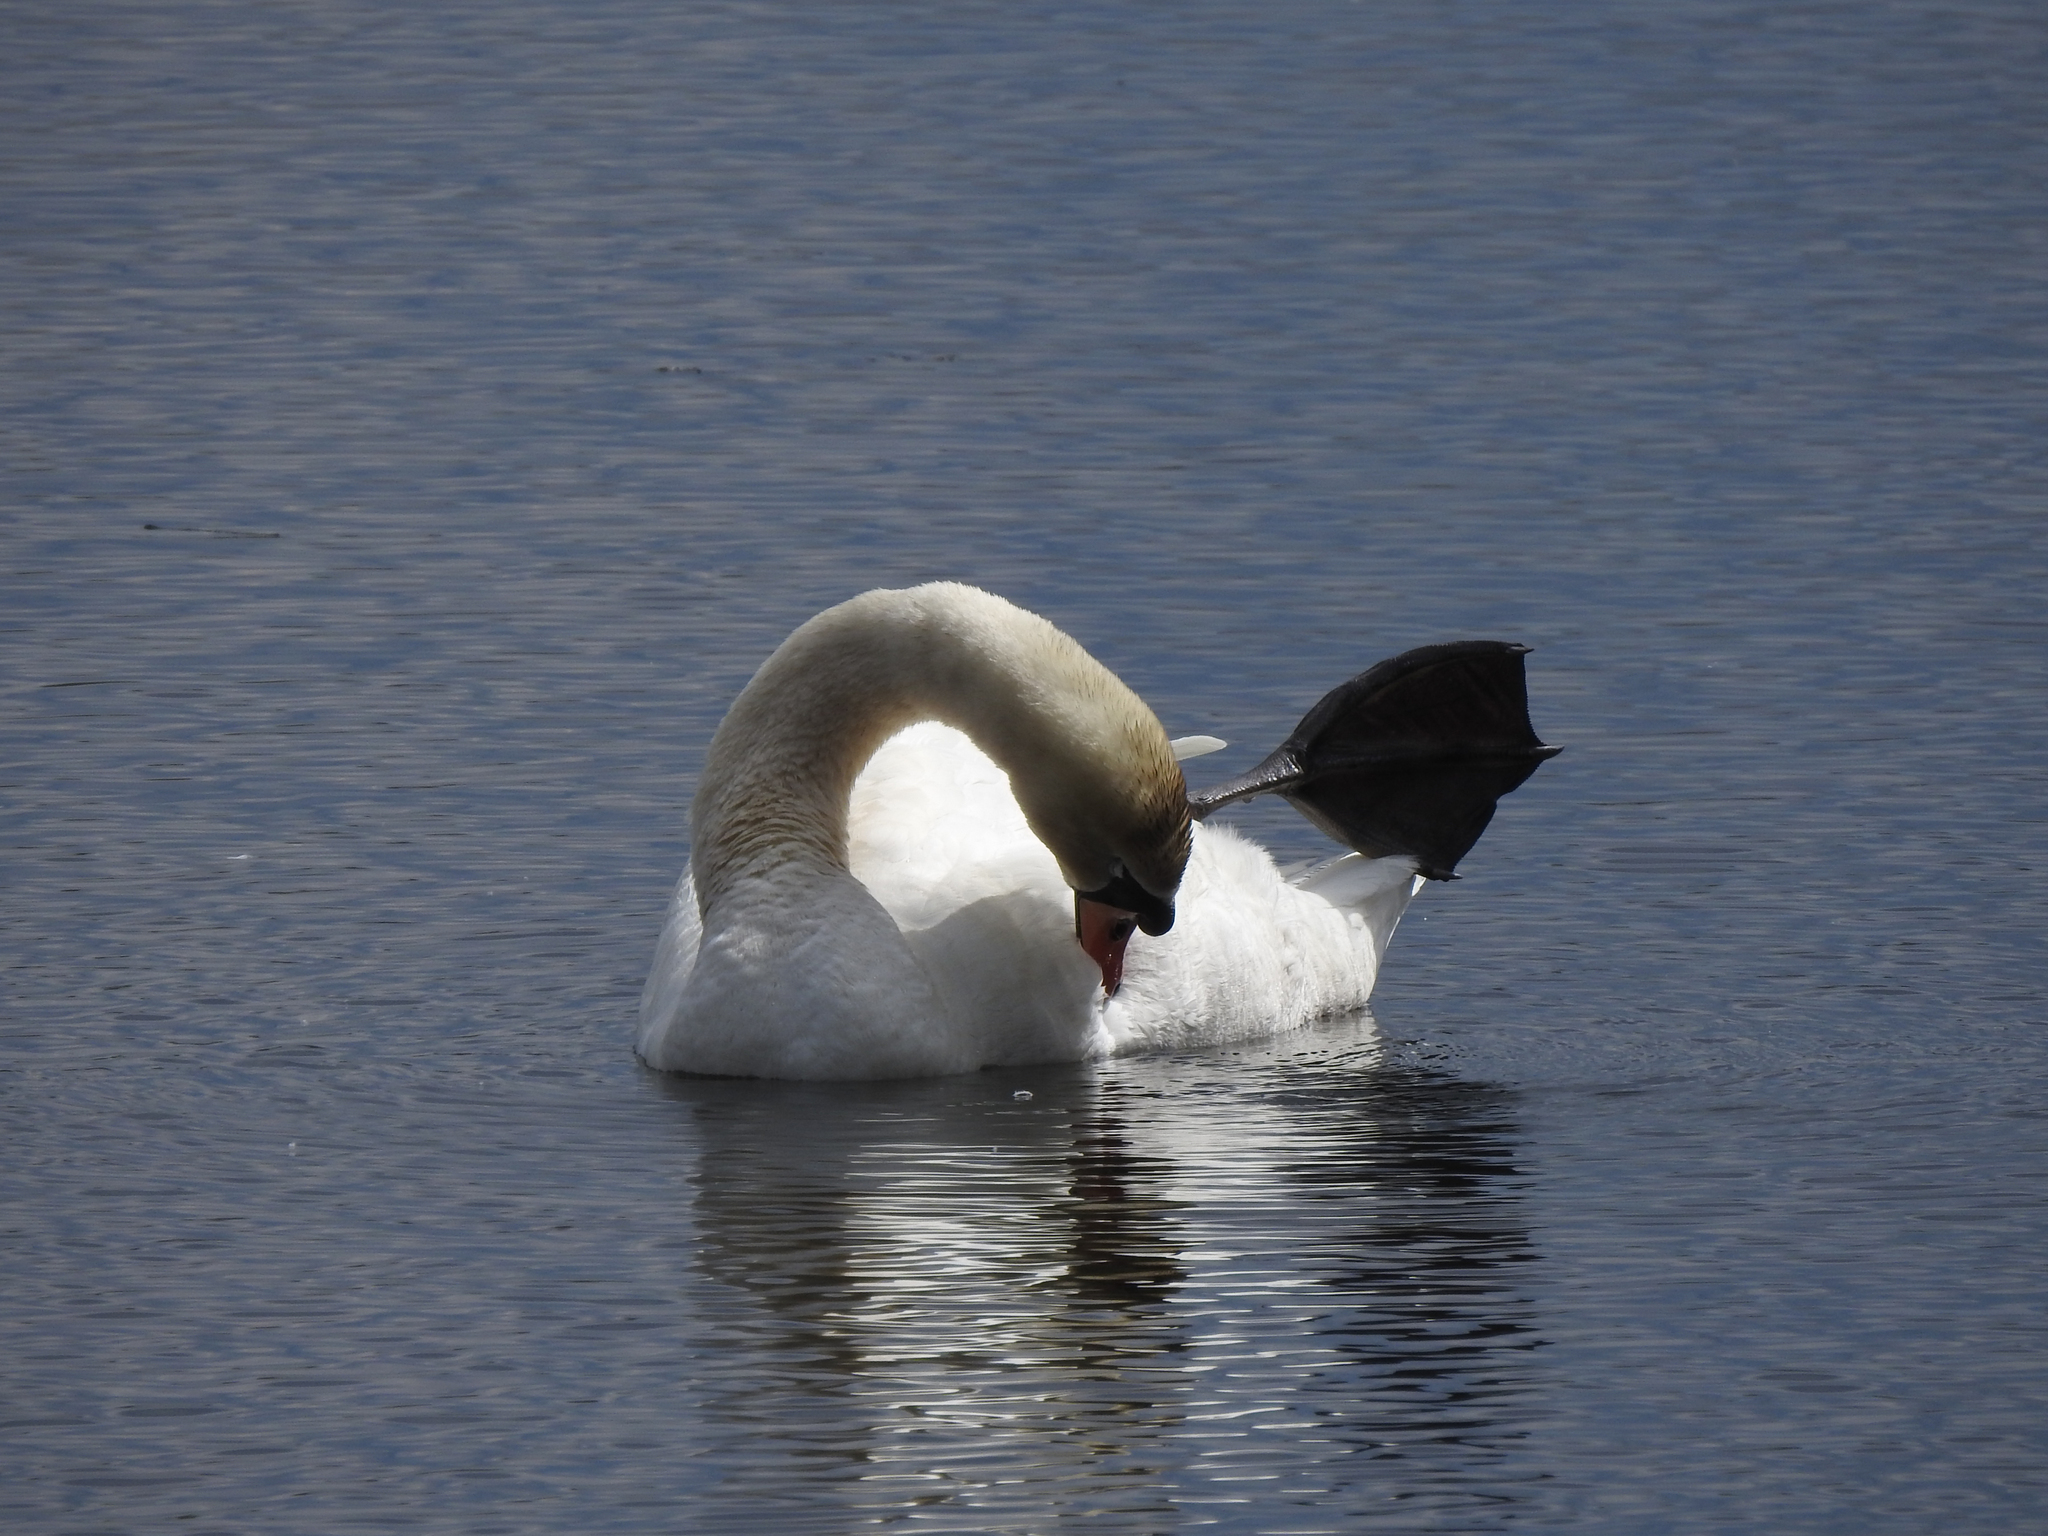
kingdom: Animalia
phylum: Chordata
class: Aves
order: Anseriformes
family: Anatidae
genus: Cygnus
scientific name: Cygnus olor
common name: Mute swan
